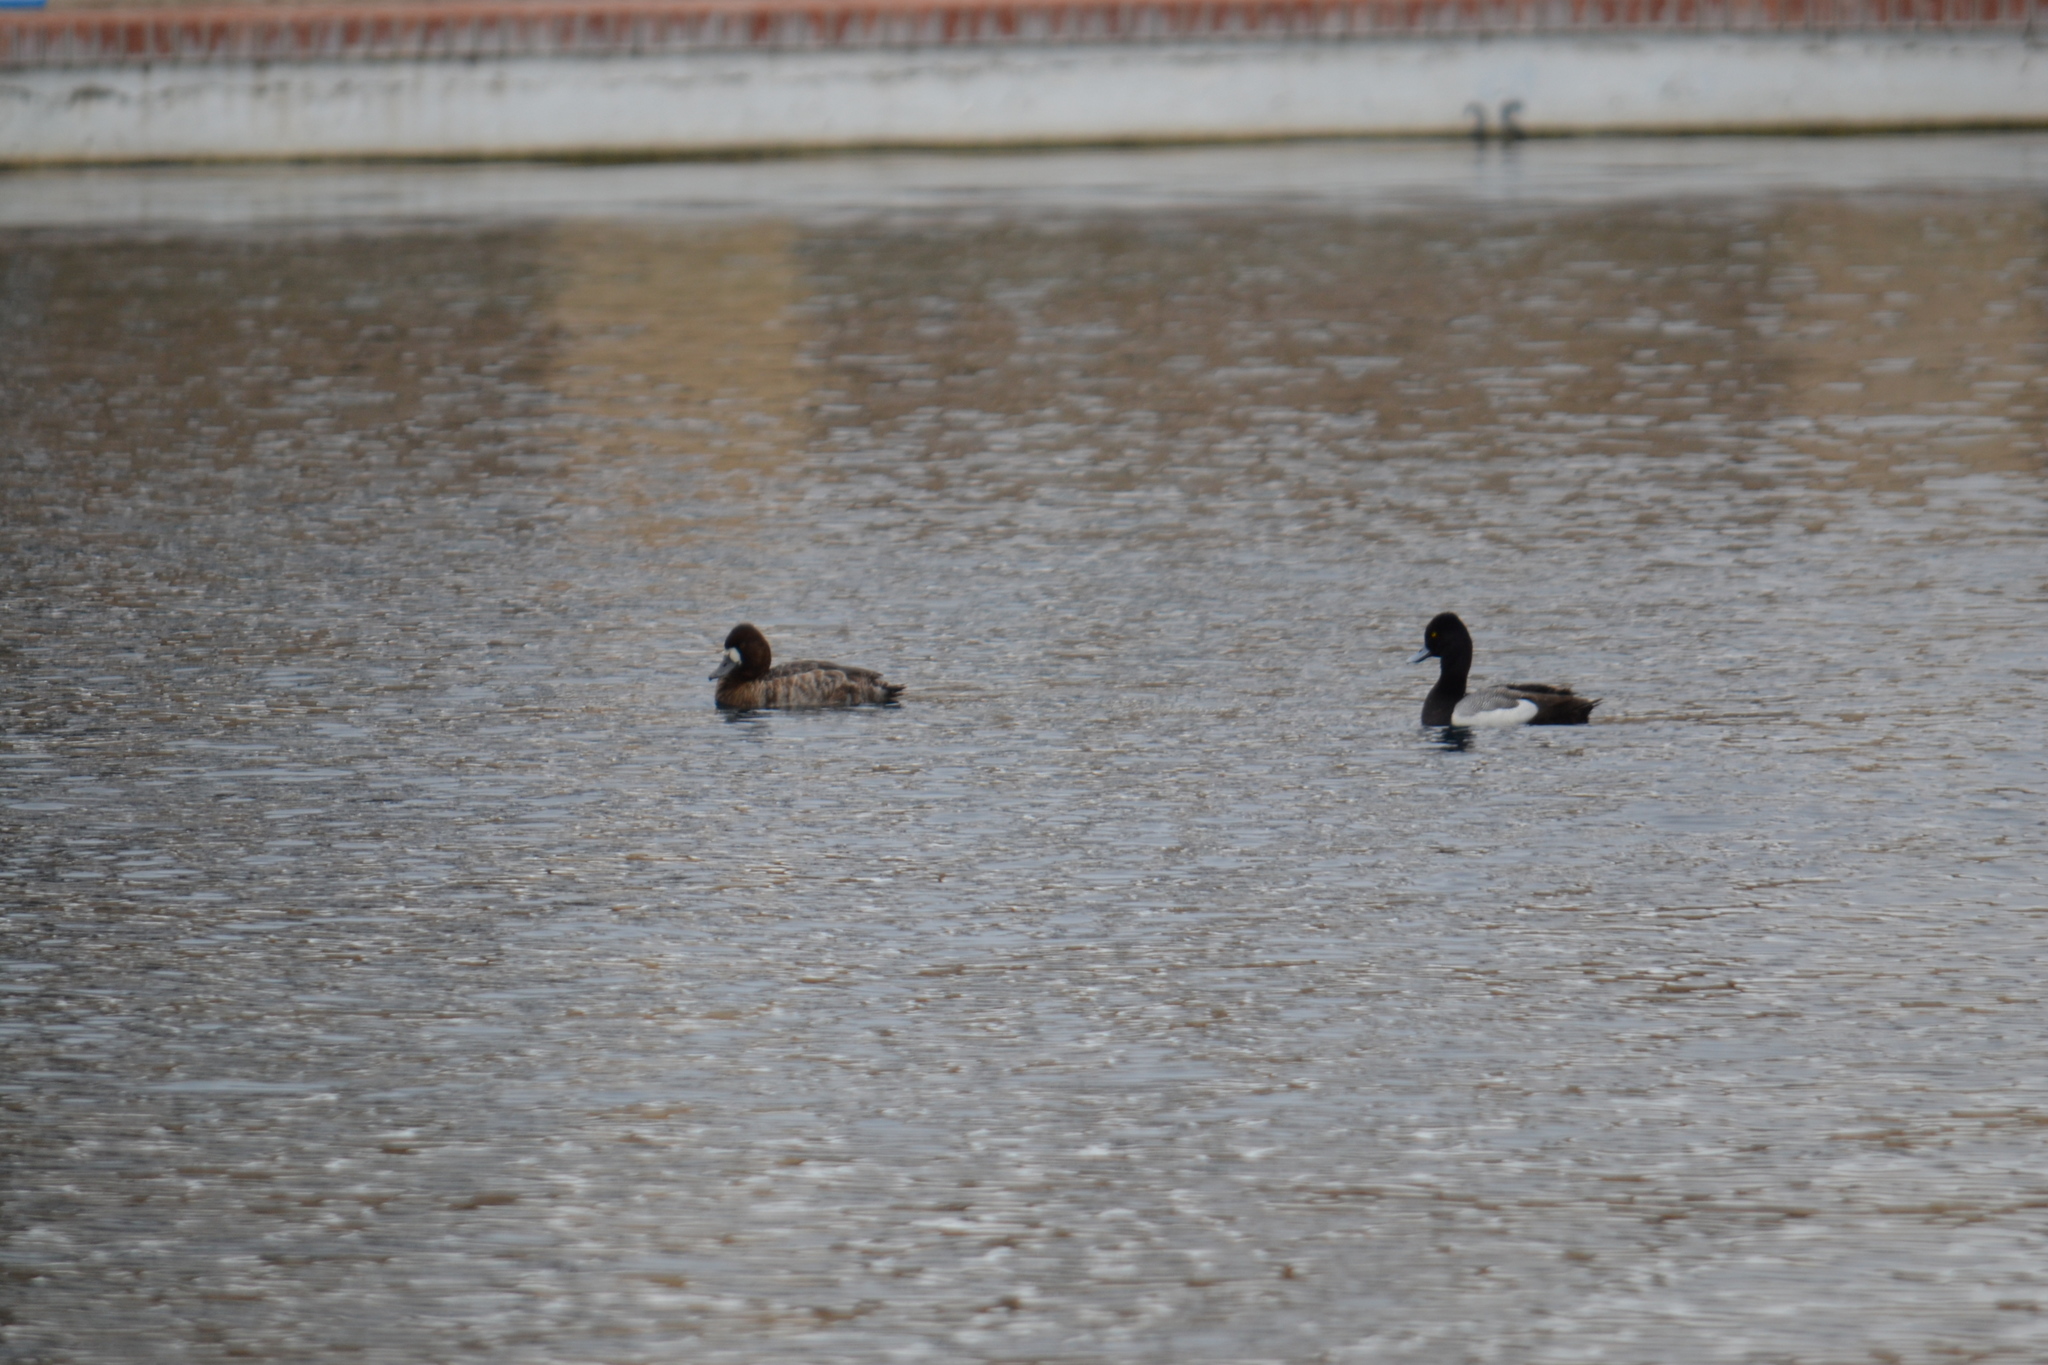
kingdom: Animalia
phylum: Chordata
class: Aves
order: Anseriformes
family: Anatidae
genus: Aythya
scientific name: Aythya affinis
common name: Lesser scaup
